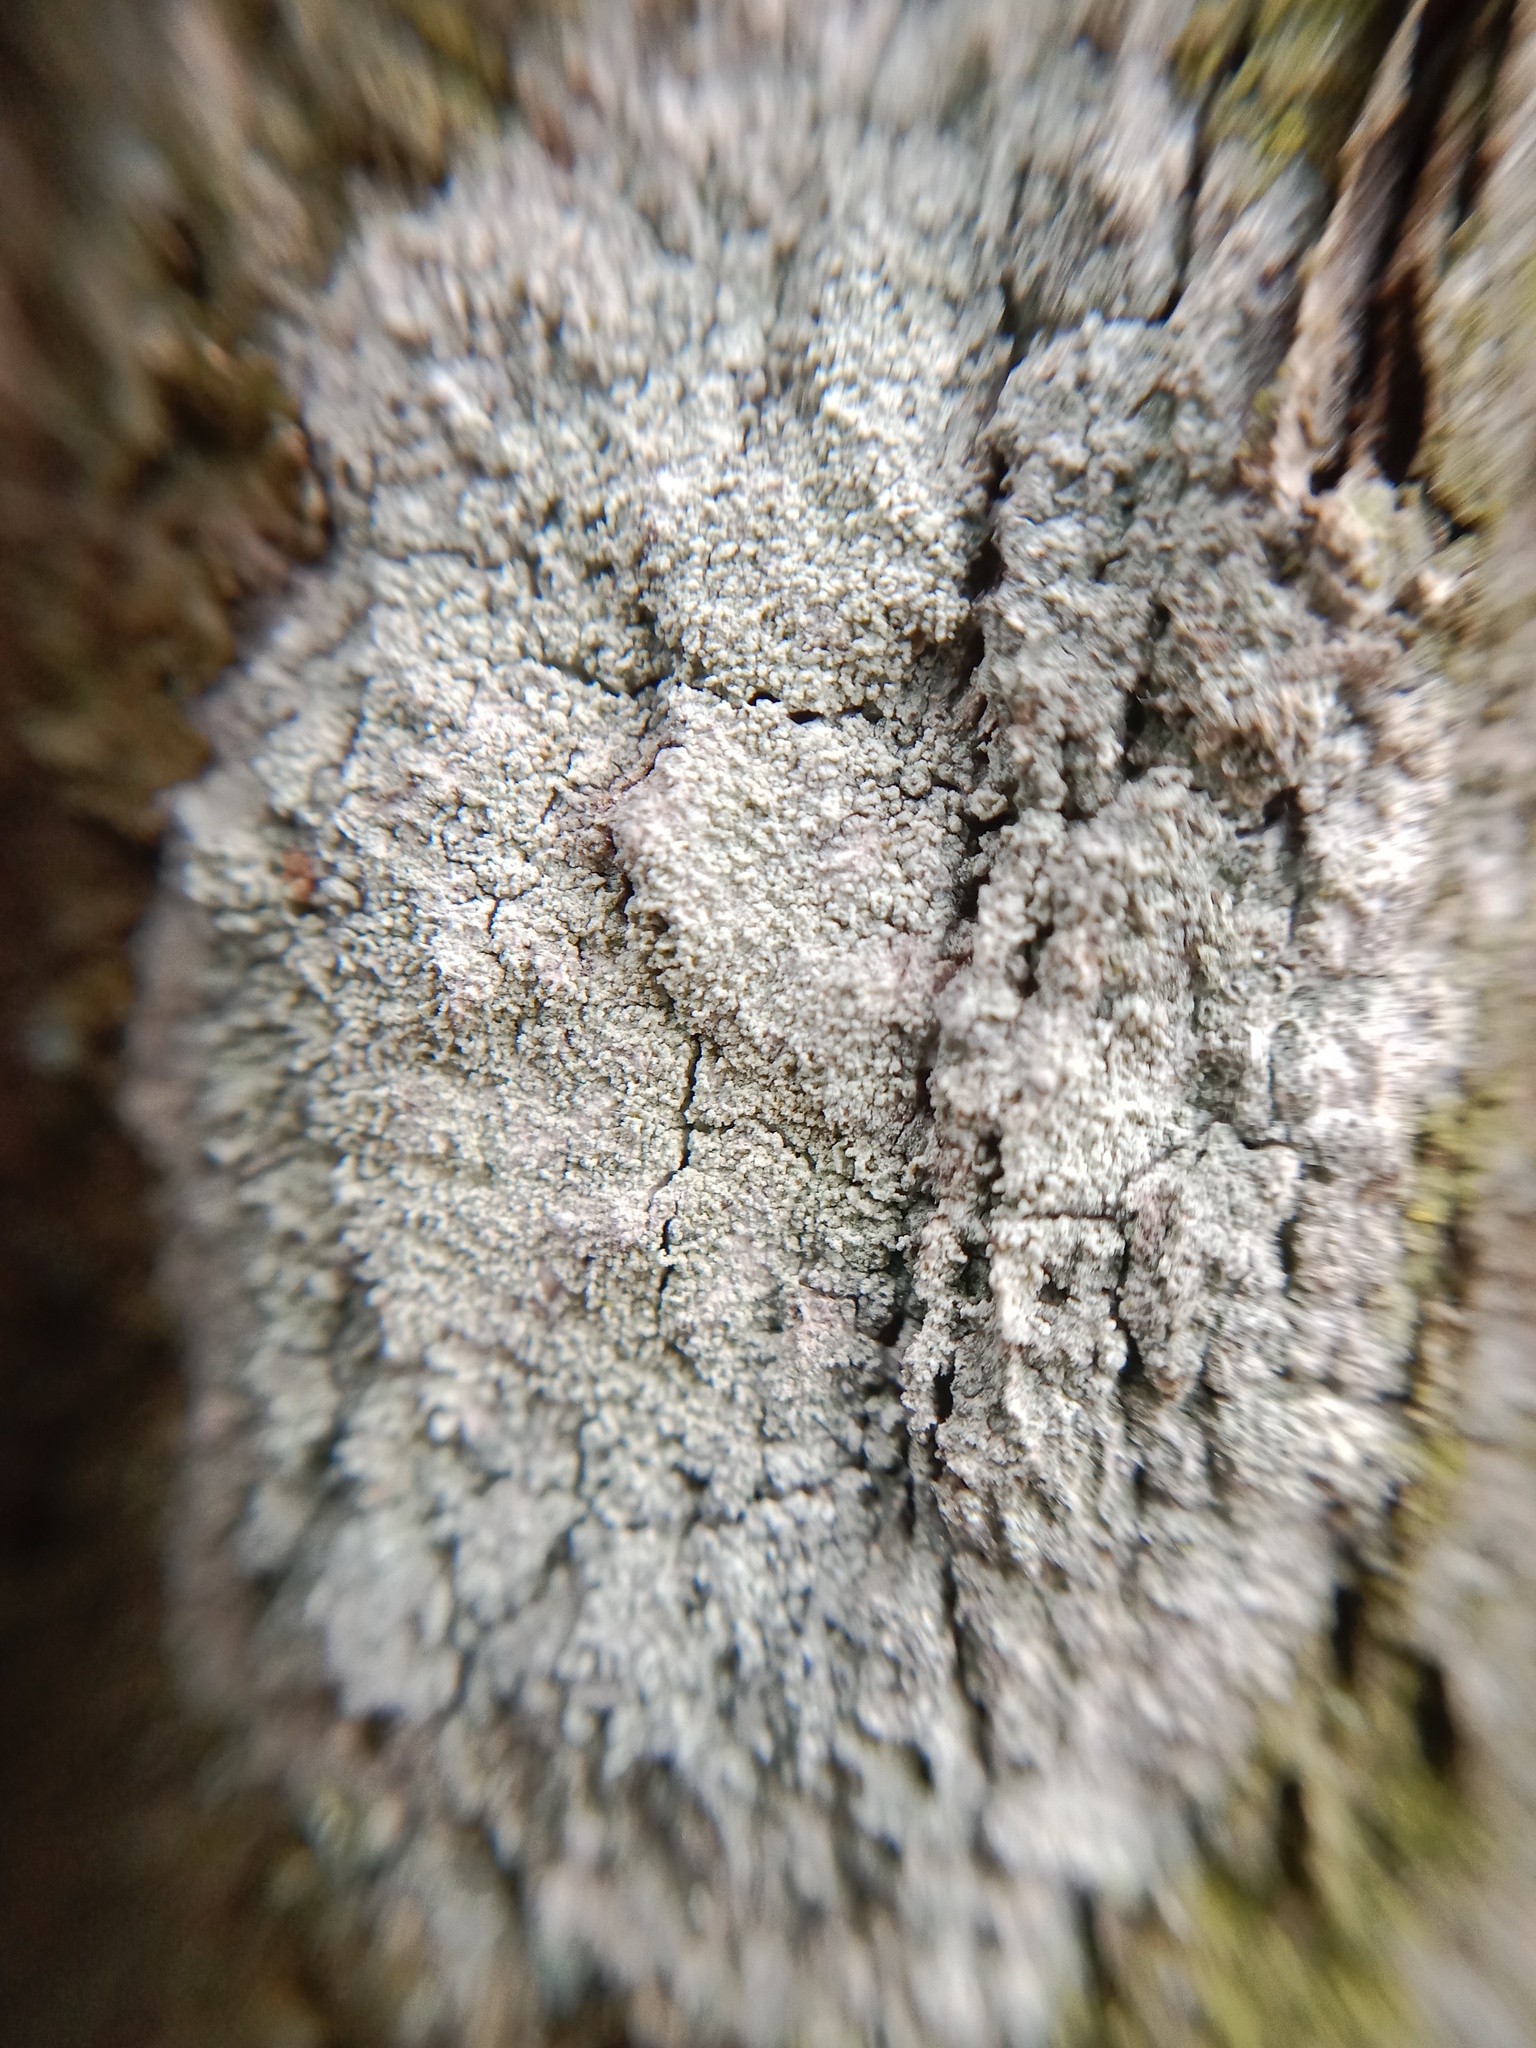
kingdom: Fungi
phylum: Ascomycota
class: Lecanoromycetes
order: Ostropales
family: Phlyctidaceae
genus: Phlyctis
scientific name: Phlyctis argena
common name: Whitewash lichen
